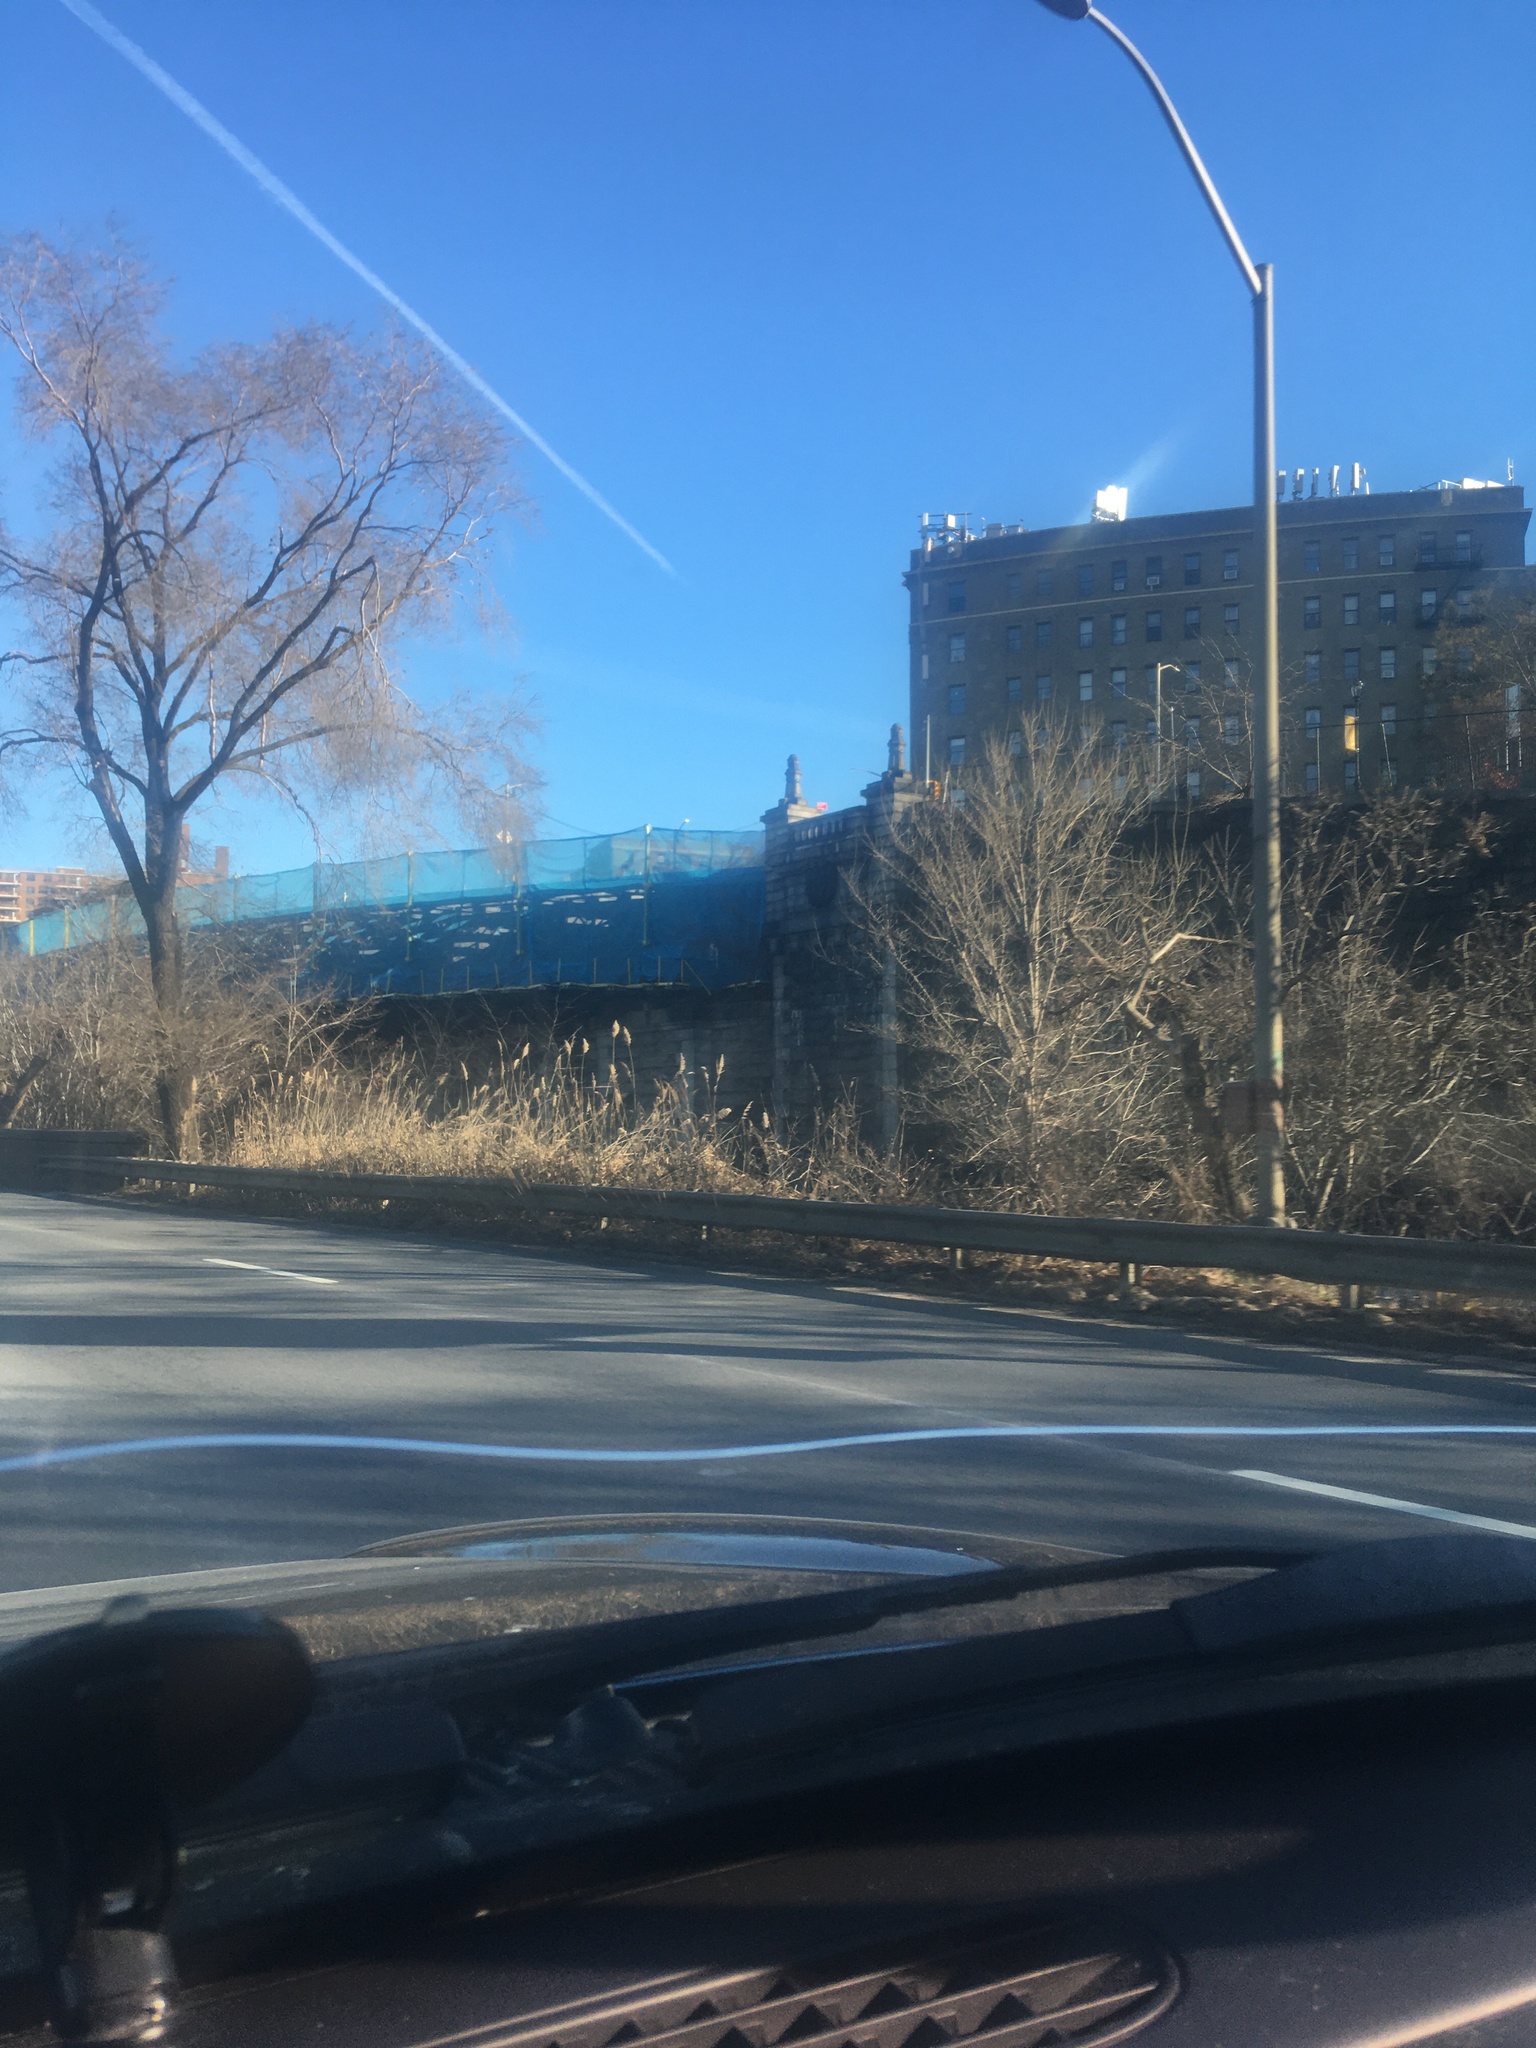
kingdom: Plantae
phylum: Tracheophyta
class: Liliopsida
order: Poales
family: Poaceae
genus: Phragmites
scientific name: Phragmites australis
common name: Common reed
